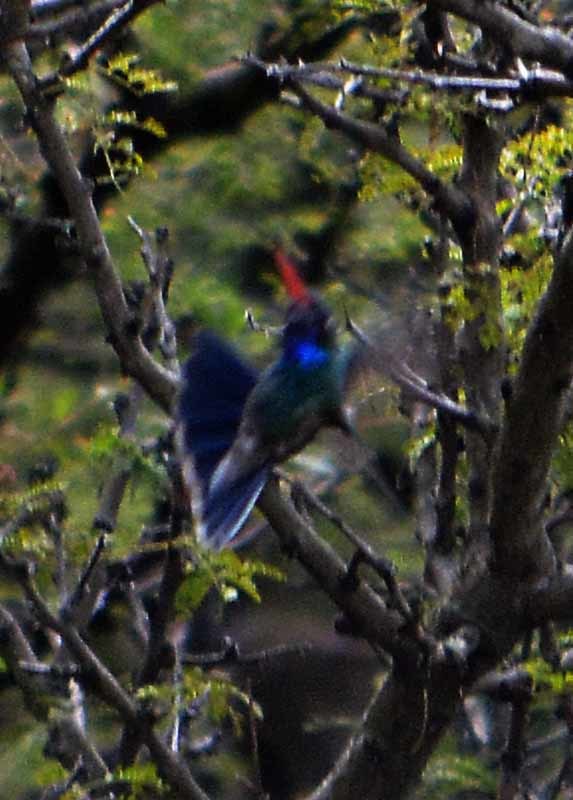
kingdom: Animalia
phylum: Chordata
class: Aves
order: Apodiformes
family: Trochilidae
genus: Cynanthus
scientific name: Cynanthus latirostris
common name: Broad-billed hummingbird
